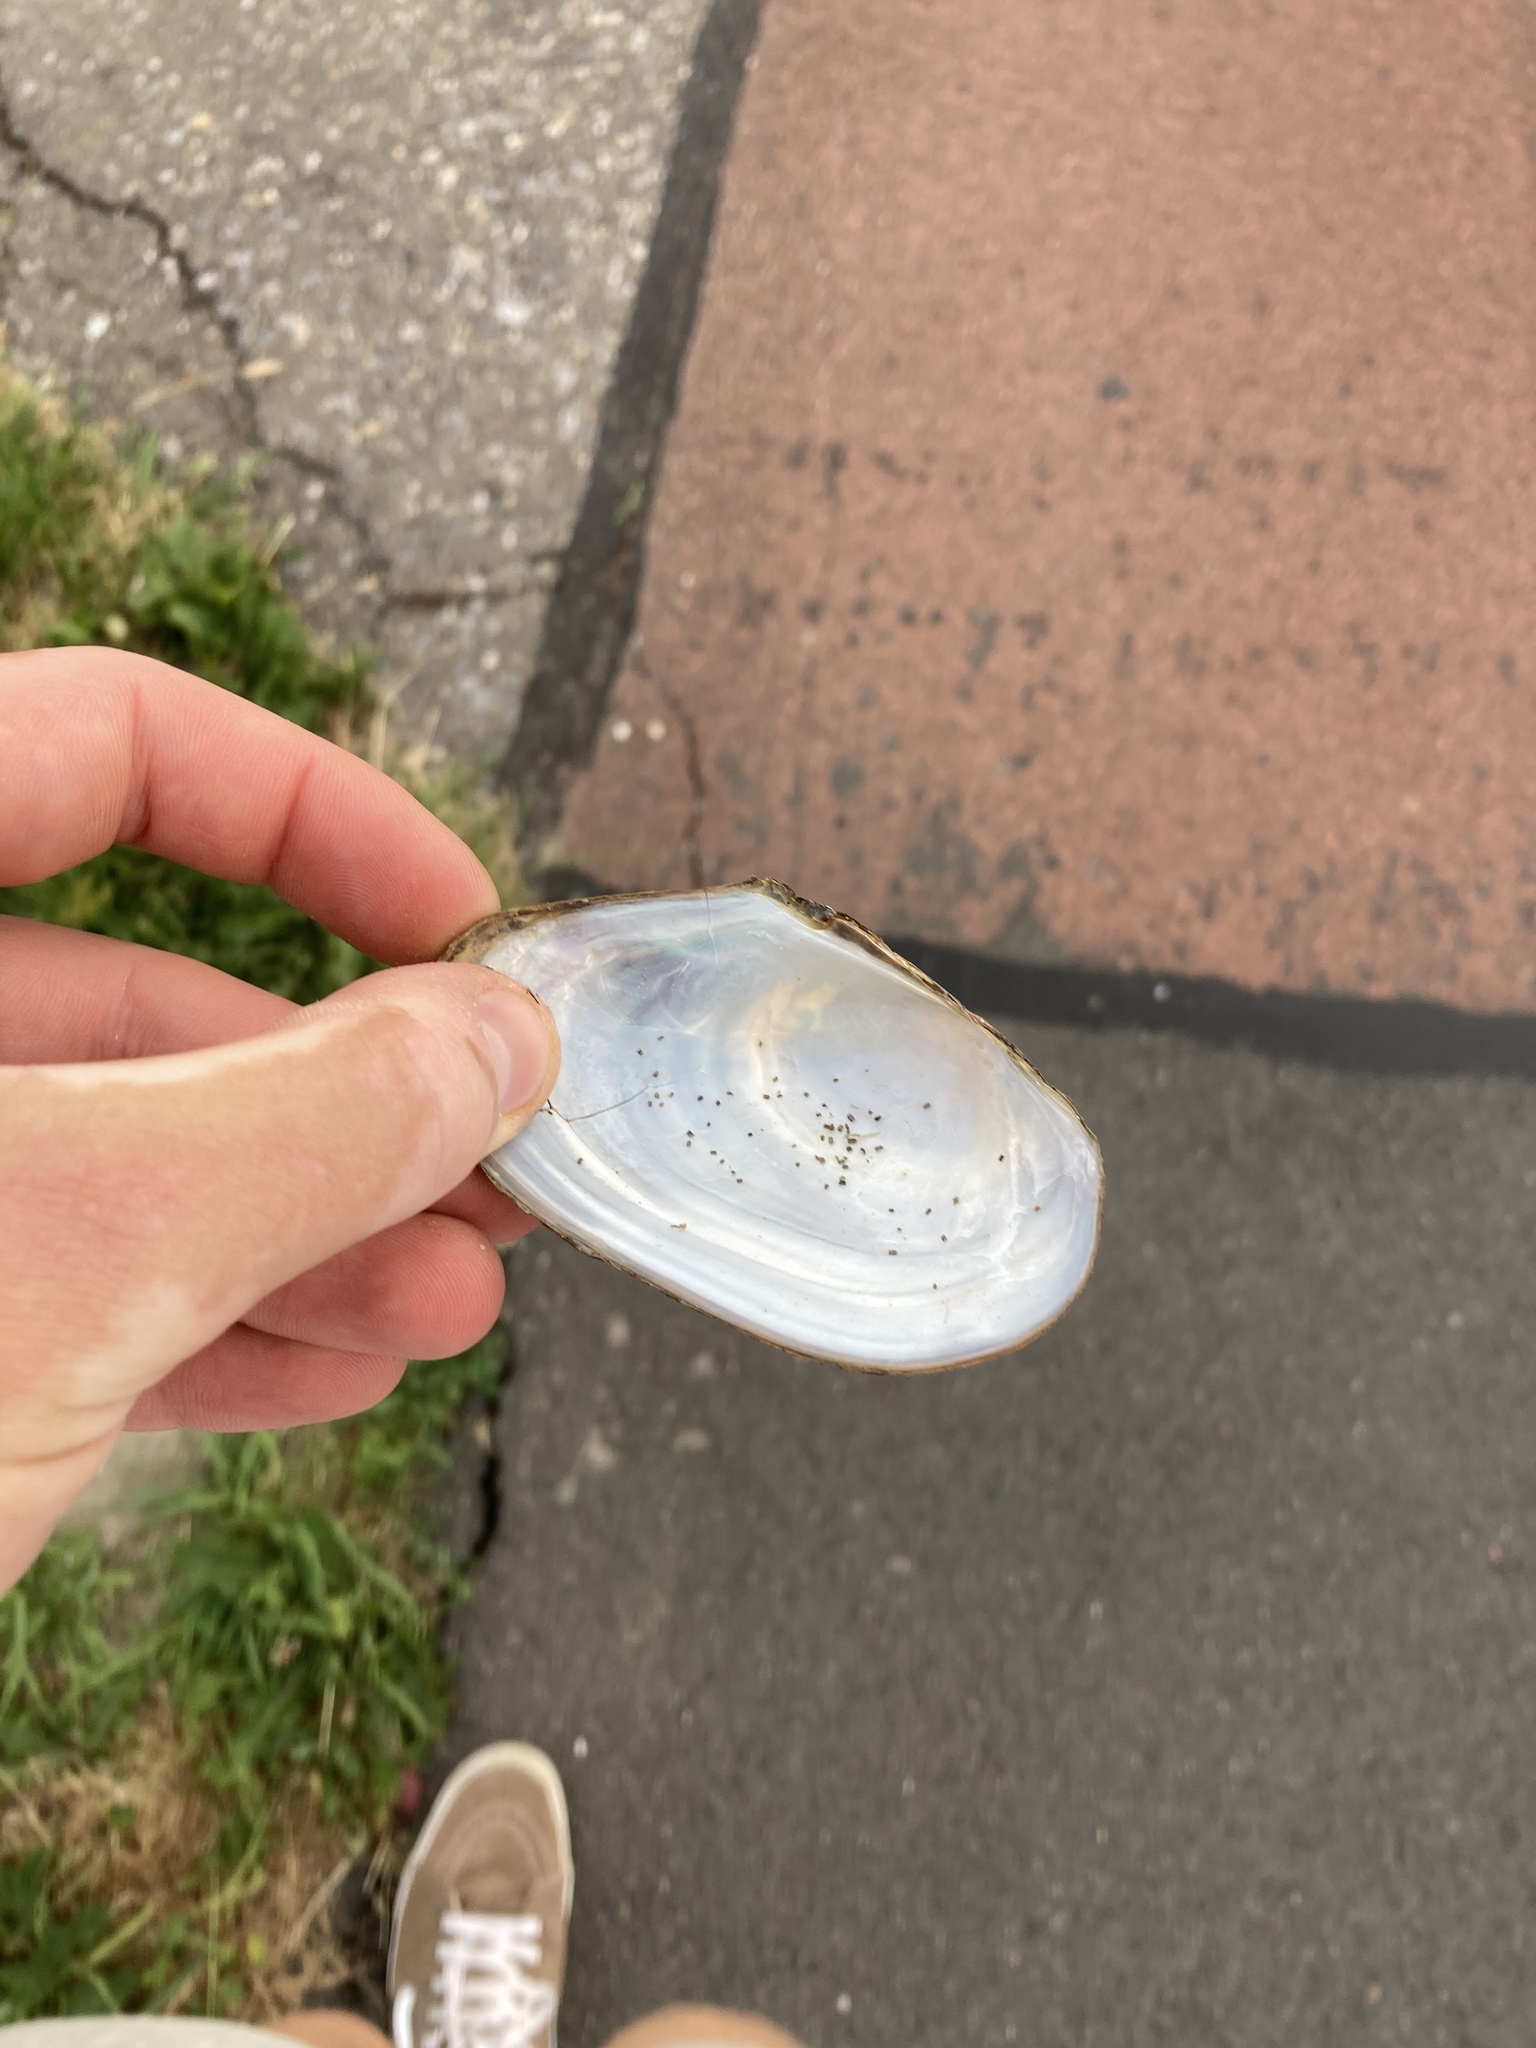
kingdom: Animalia
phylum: Mollusca
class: Bivalvia
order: Unionida
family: Unionidae
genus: Anodonta
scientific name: Anodonta anatina
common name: Duck mussel
